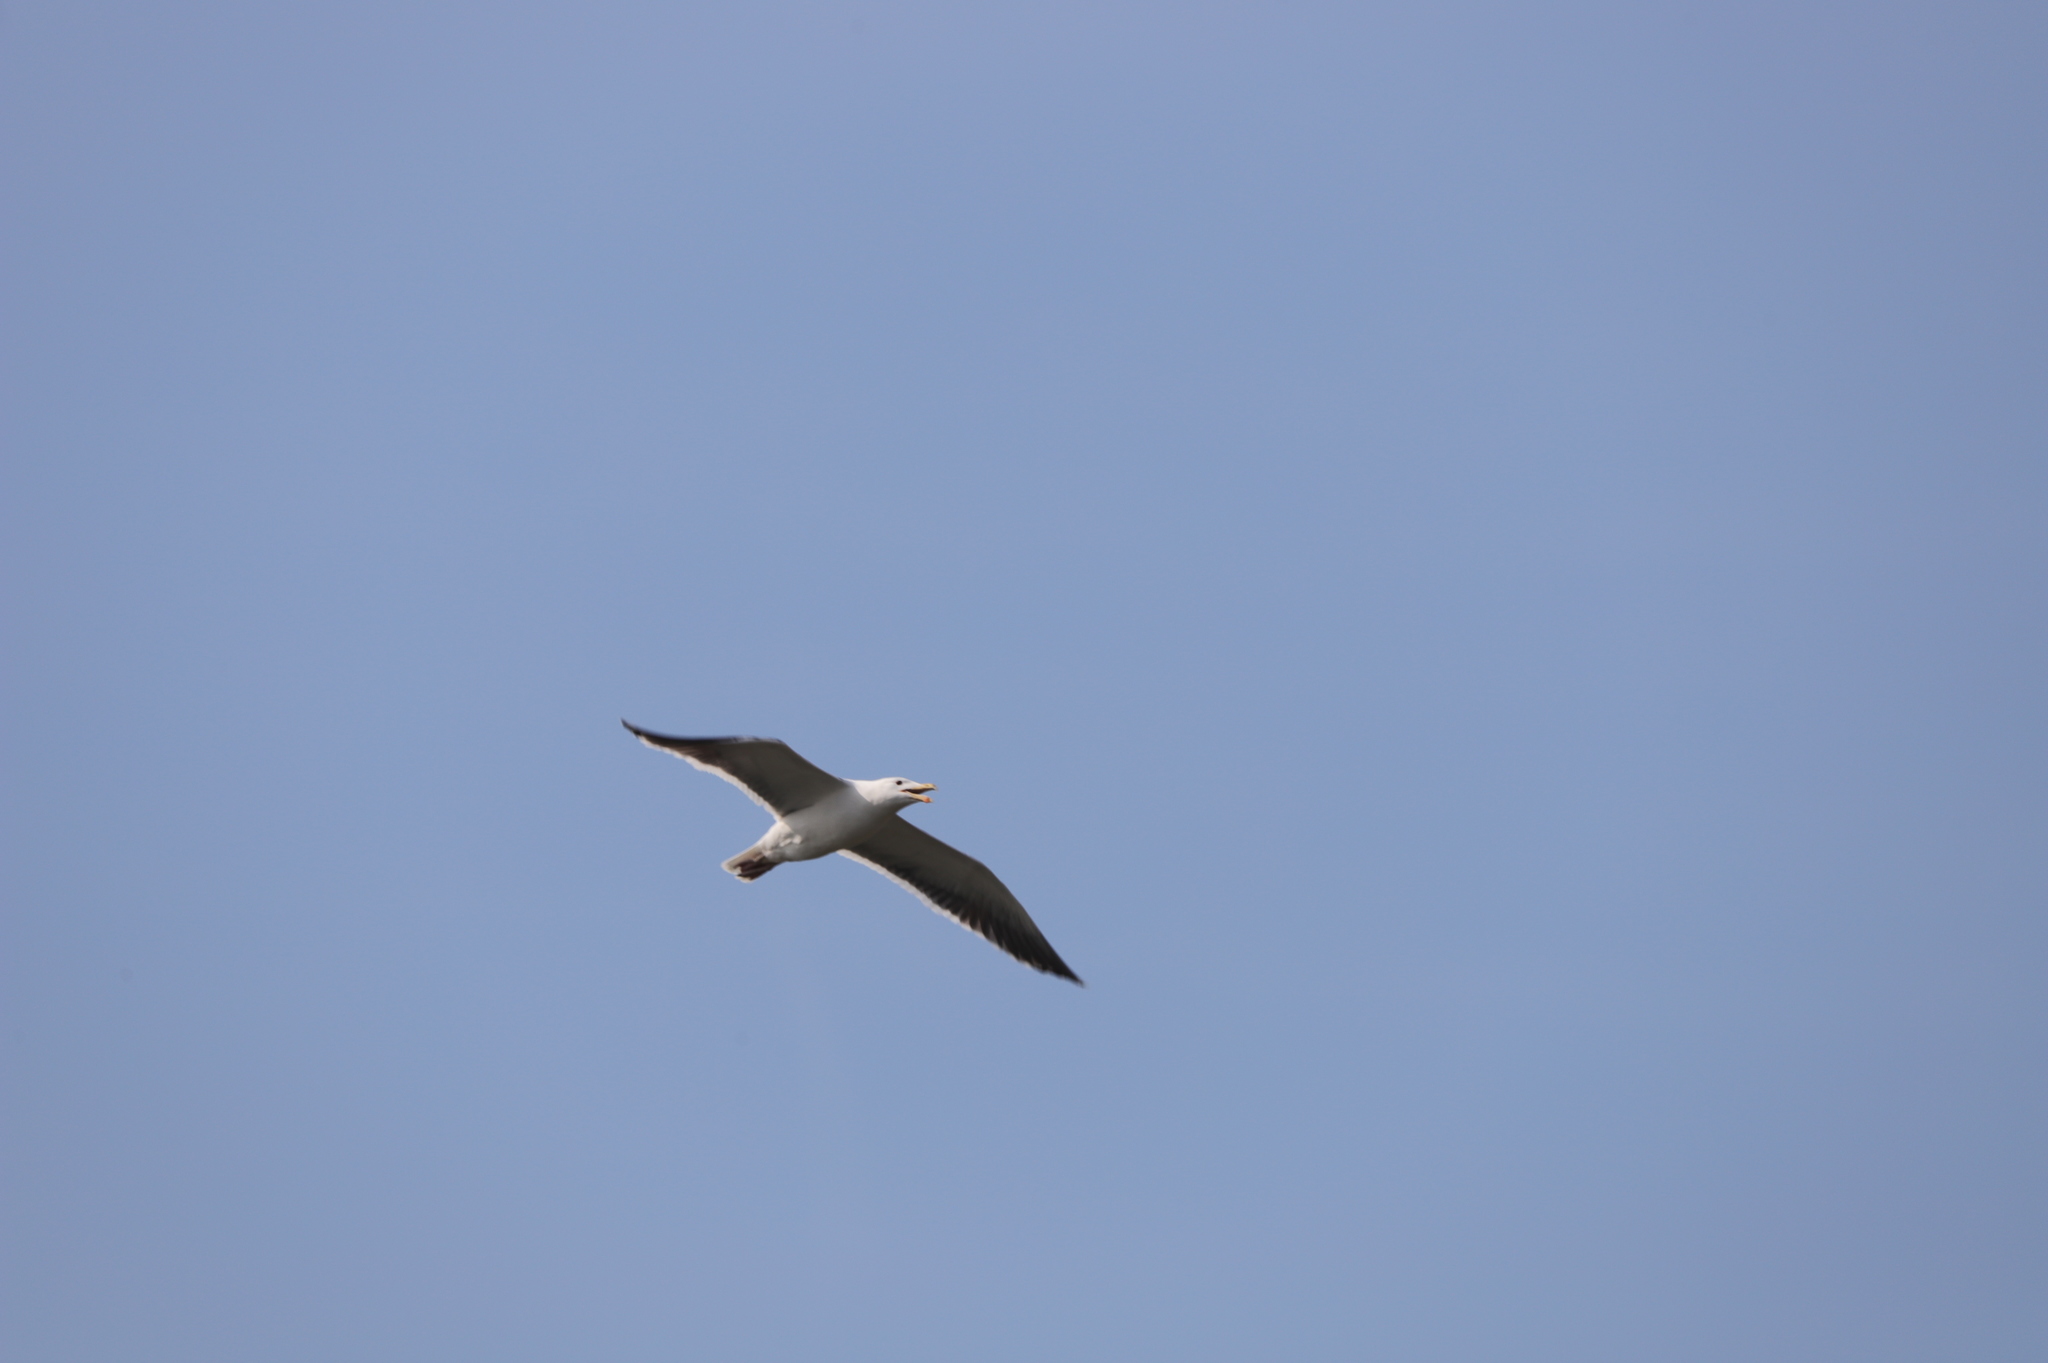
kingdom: Animalia
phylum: Chordata
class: Aves
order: Charadriiformes
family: Laridae
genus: Larus
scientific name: Larus marinus
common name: Great black-backed gull
